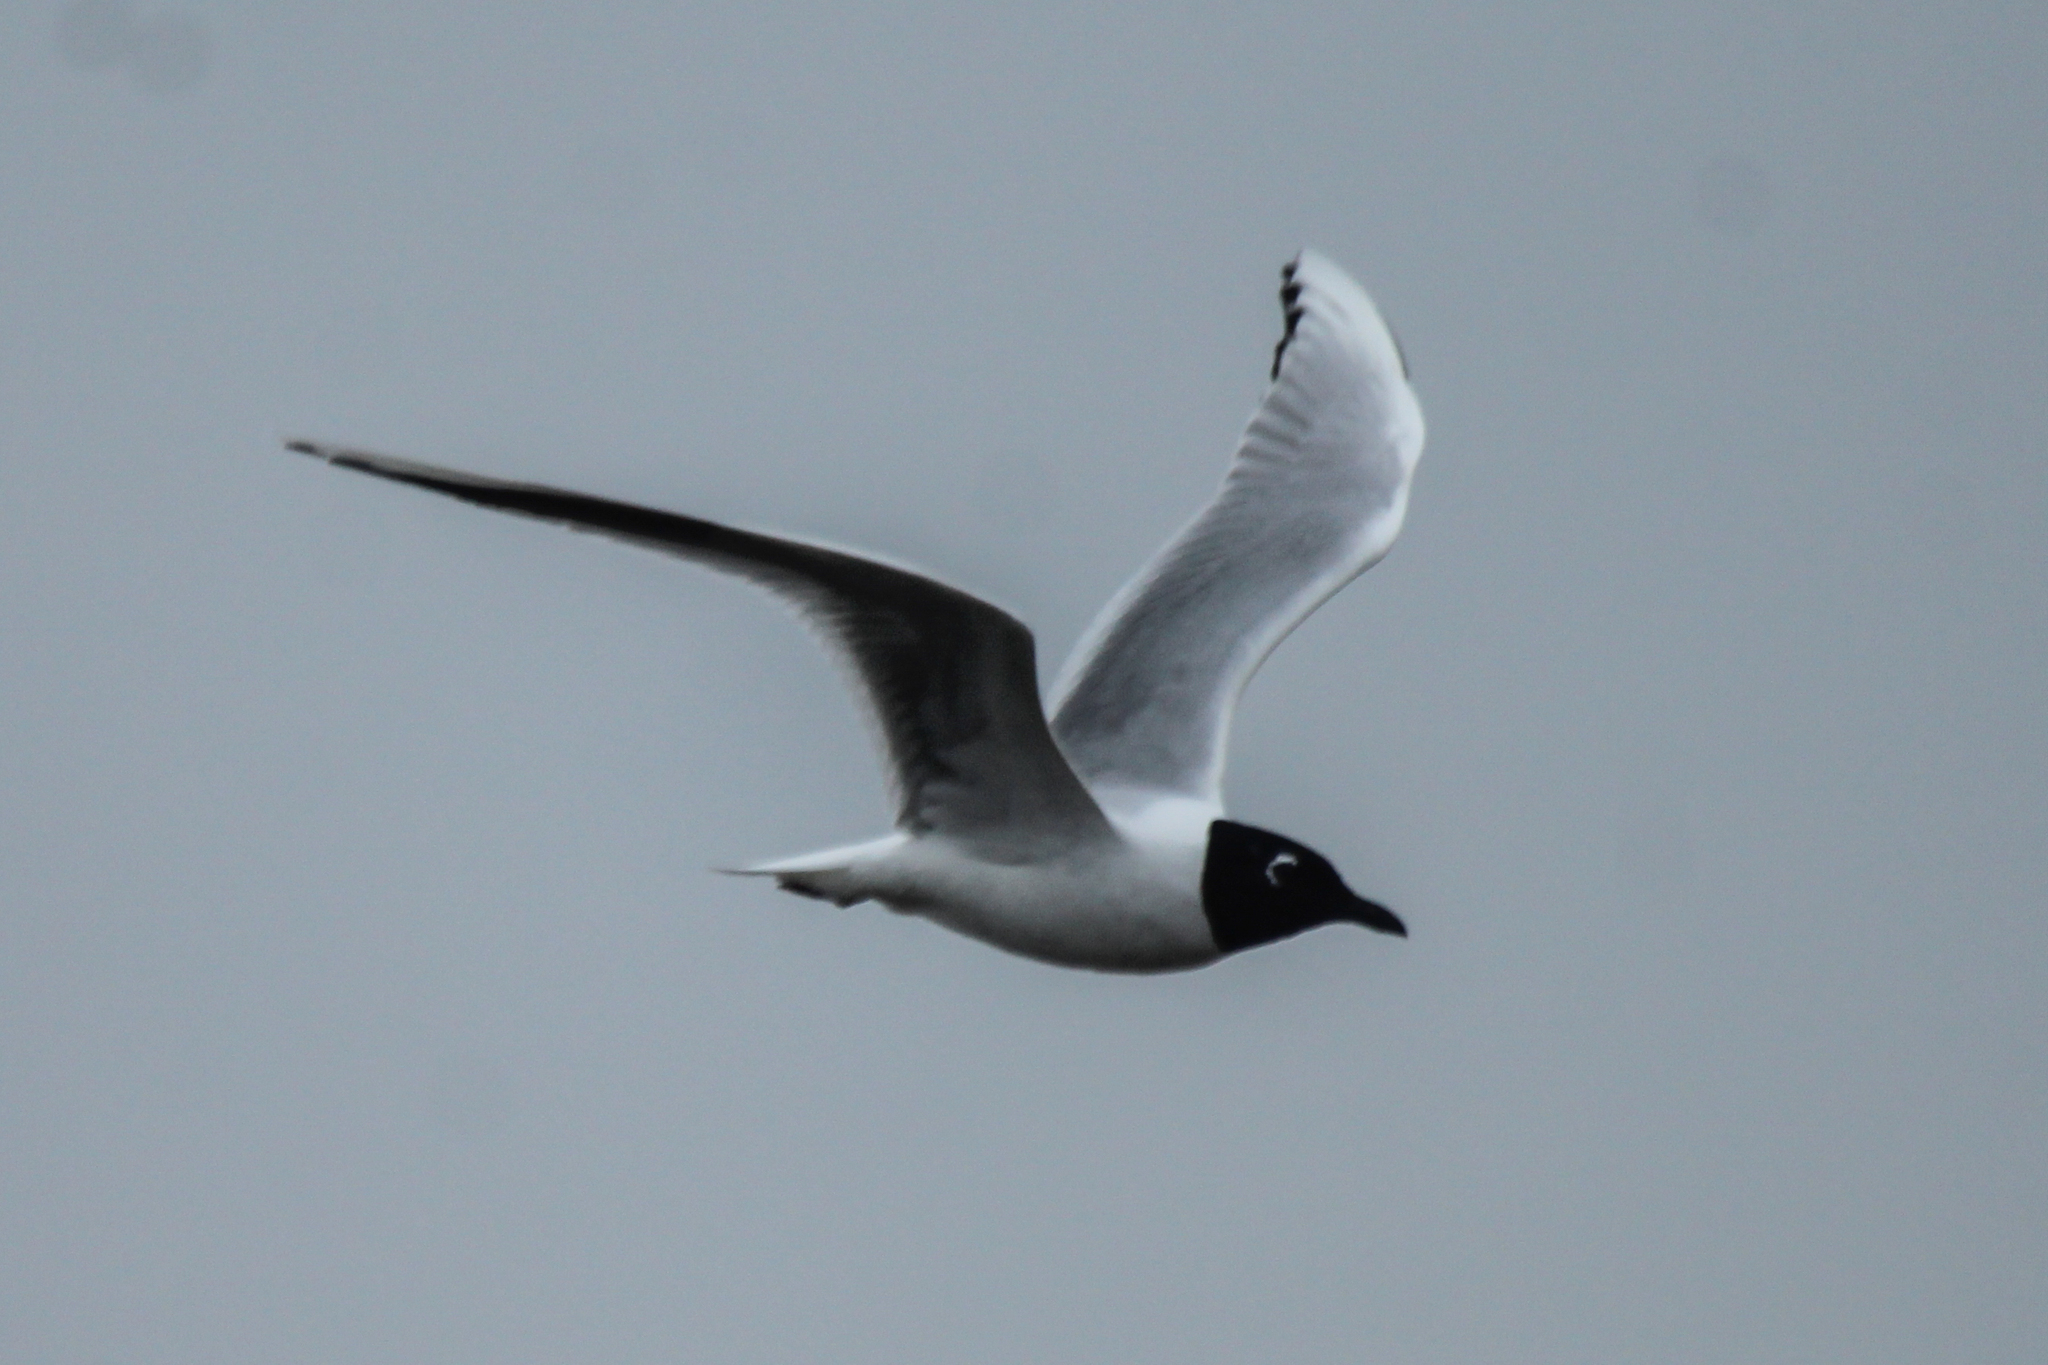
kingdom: Animalia
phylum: Chordata
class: Aves
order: Charadriiformes
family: Laridae
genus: Chroicocephalus
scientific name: Chroicocephalus saundersi
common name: Saunders's gull
